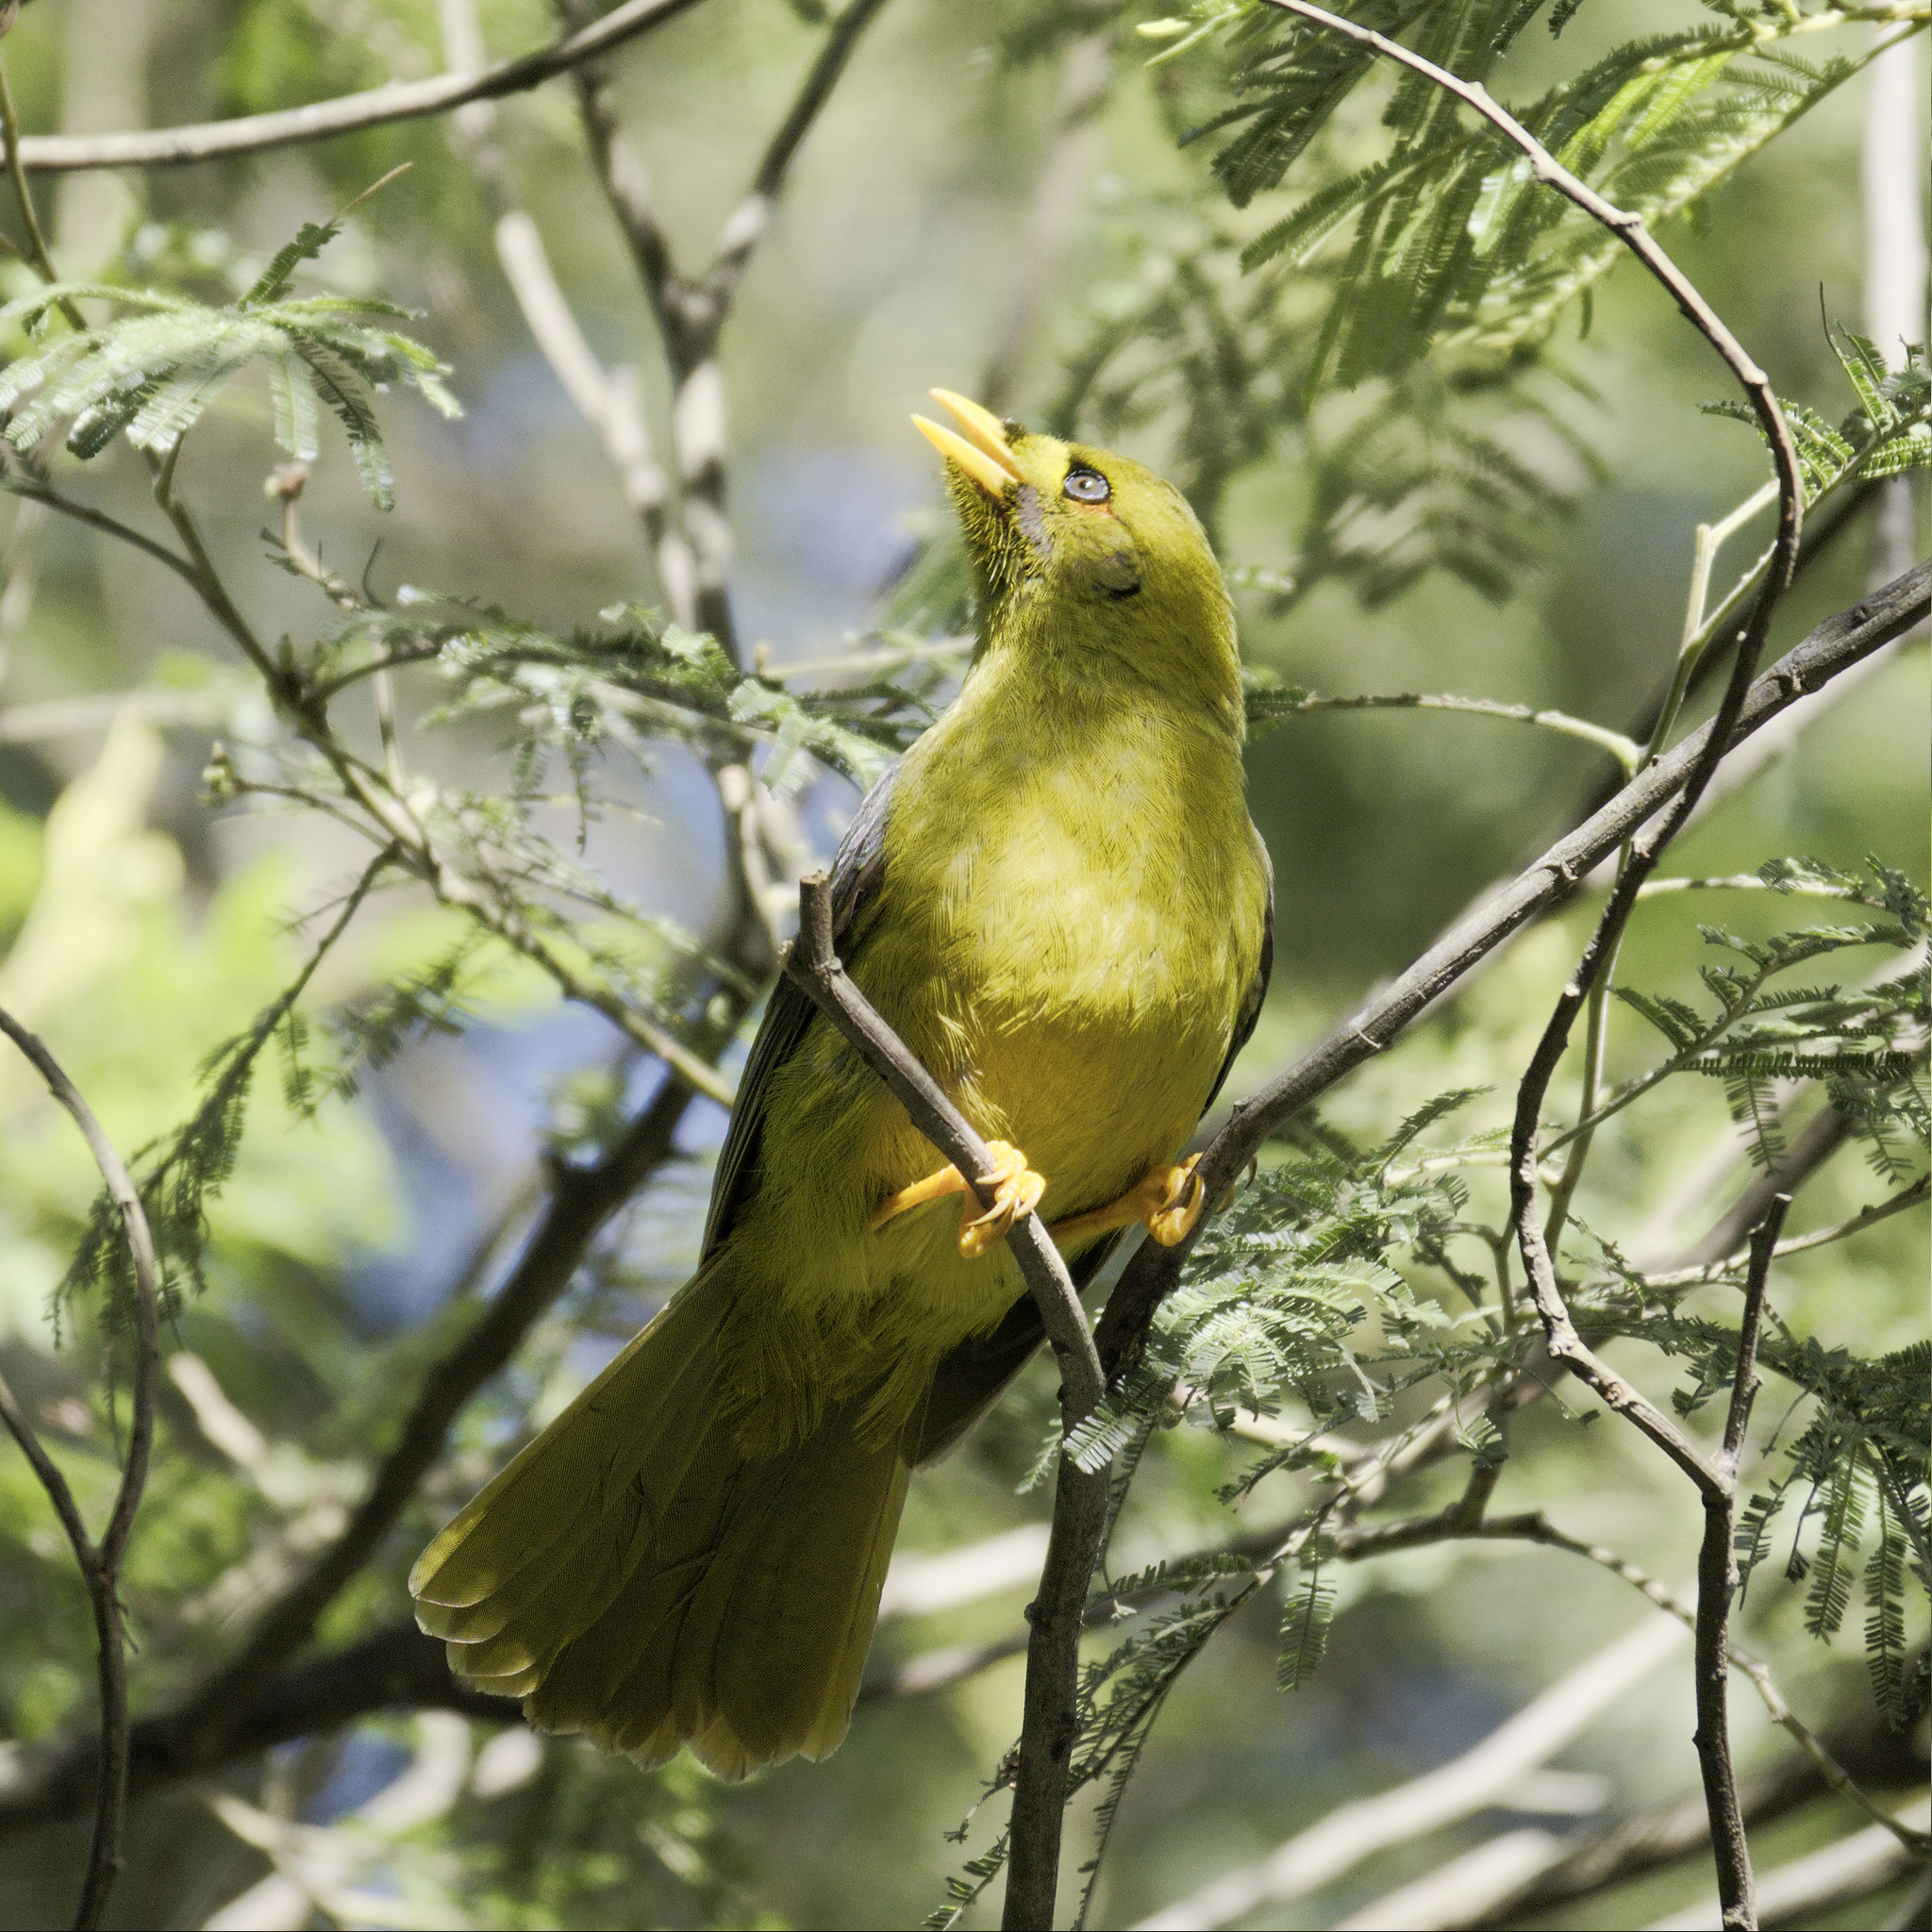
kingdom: Animalia
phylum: Chordata
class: Aves
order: Passeriformes
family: Meliphagidae
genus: Manorina
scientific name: Manorina melanophrys
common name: Bell miner
